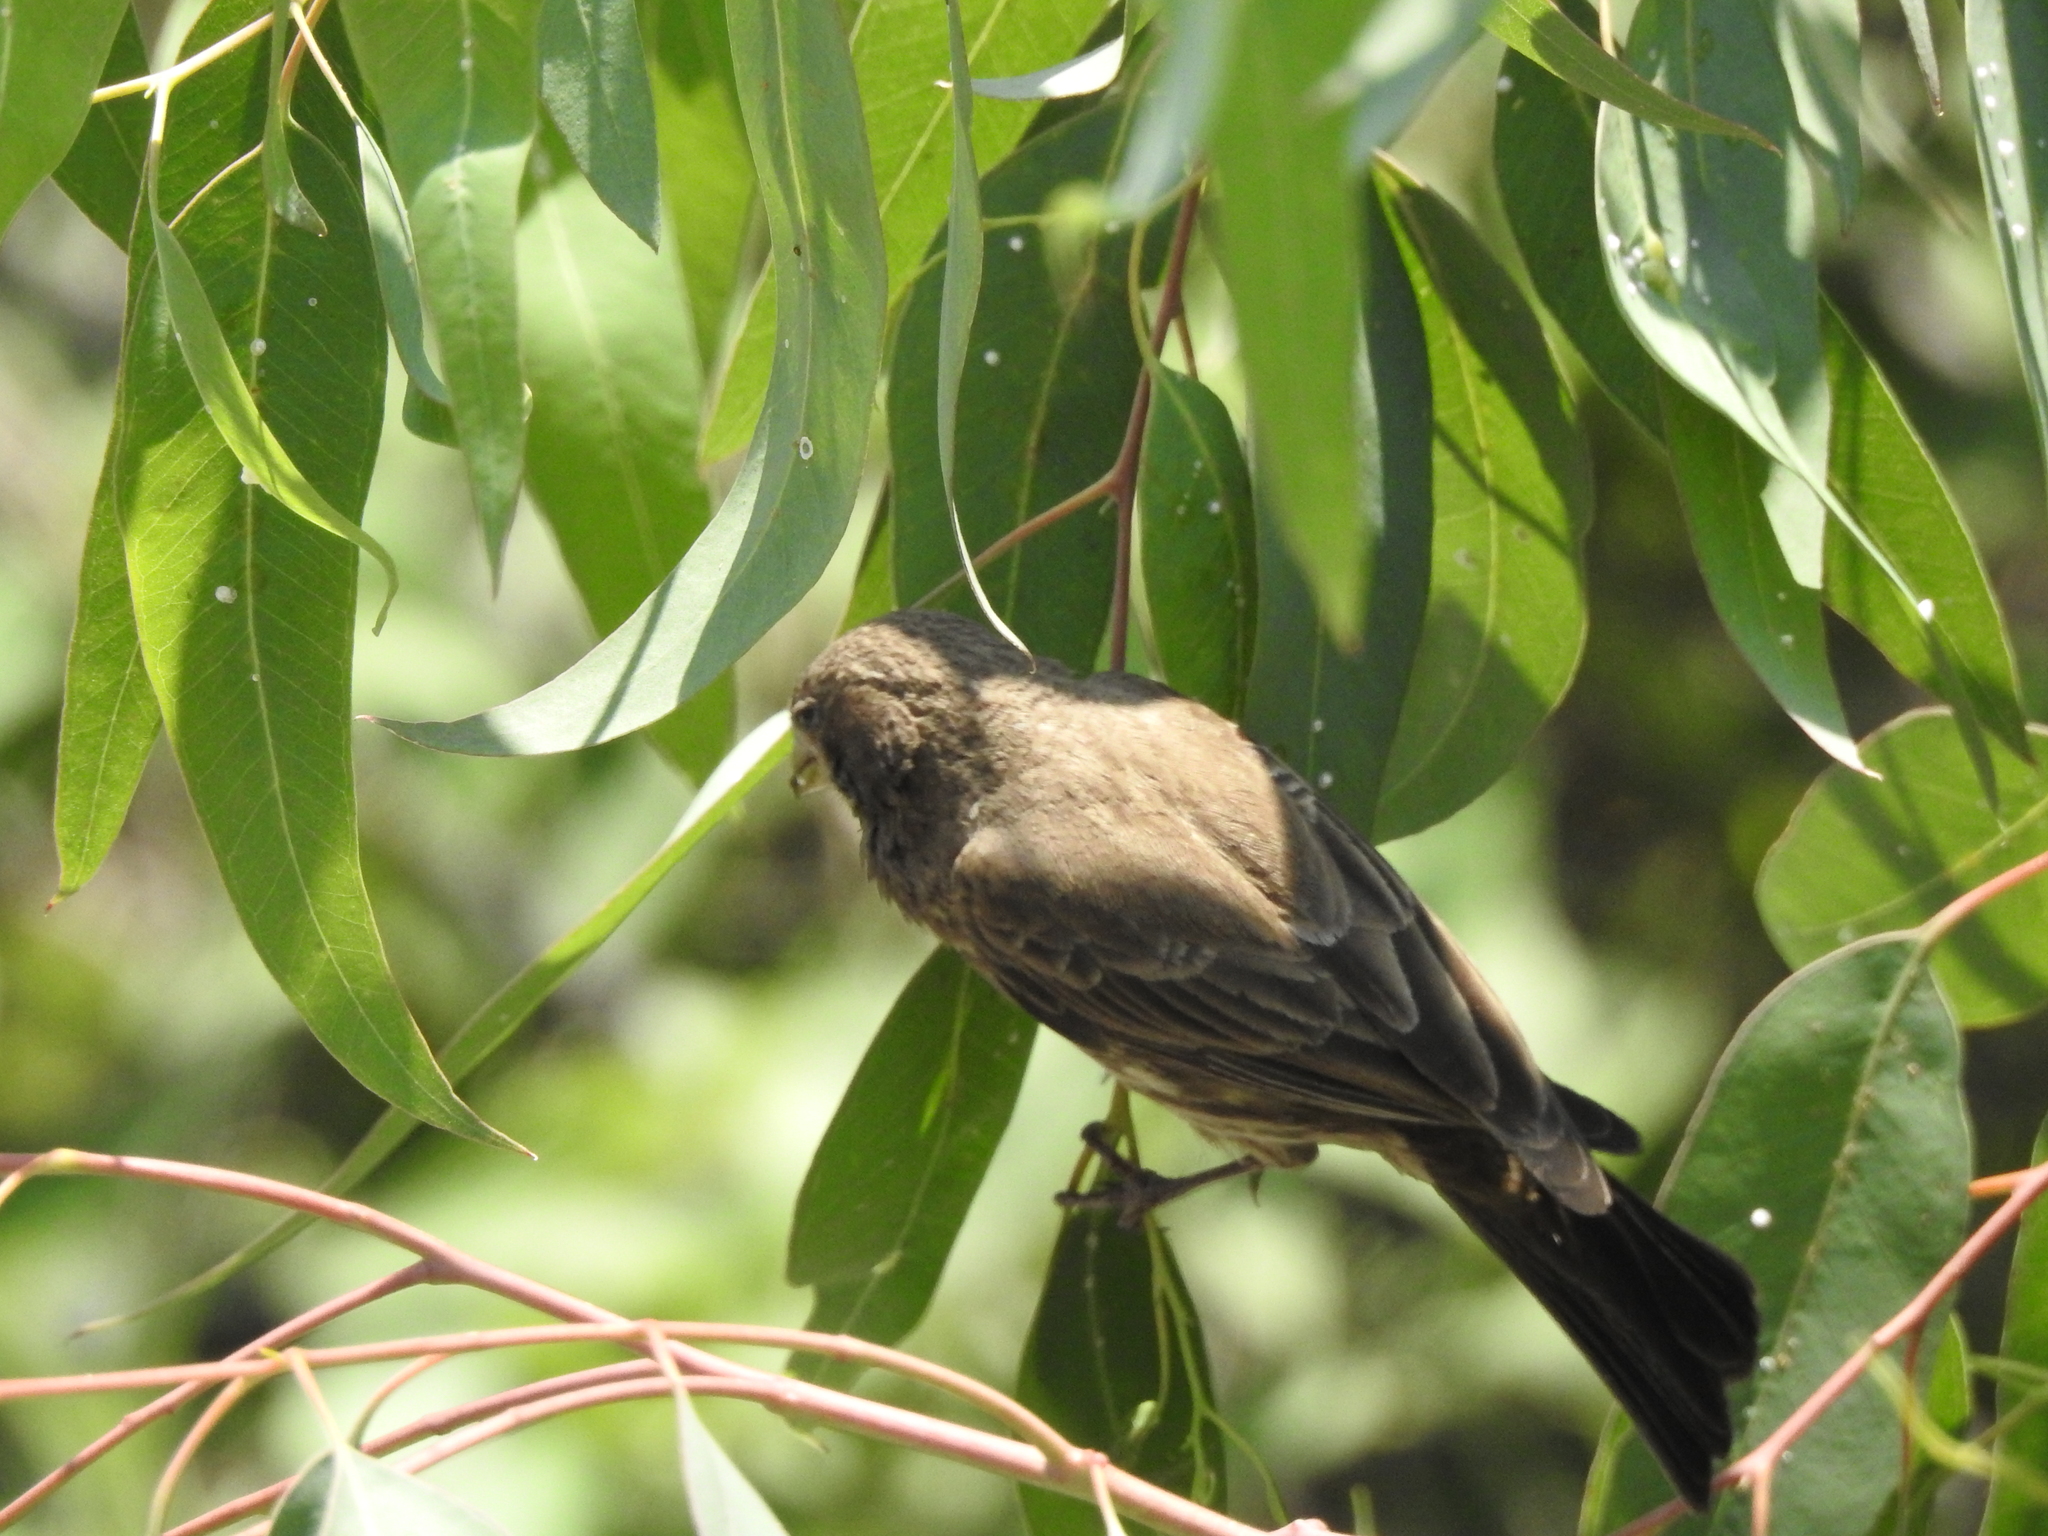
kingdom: Animalia
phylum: Chordata
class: Aves
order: Passeriformes
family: Fringillidae
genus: Haemorhous
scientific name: Haemorhous mexicanus
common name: House finch
